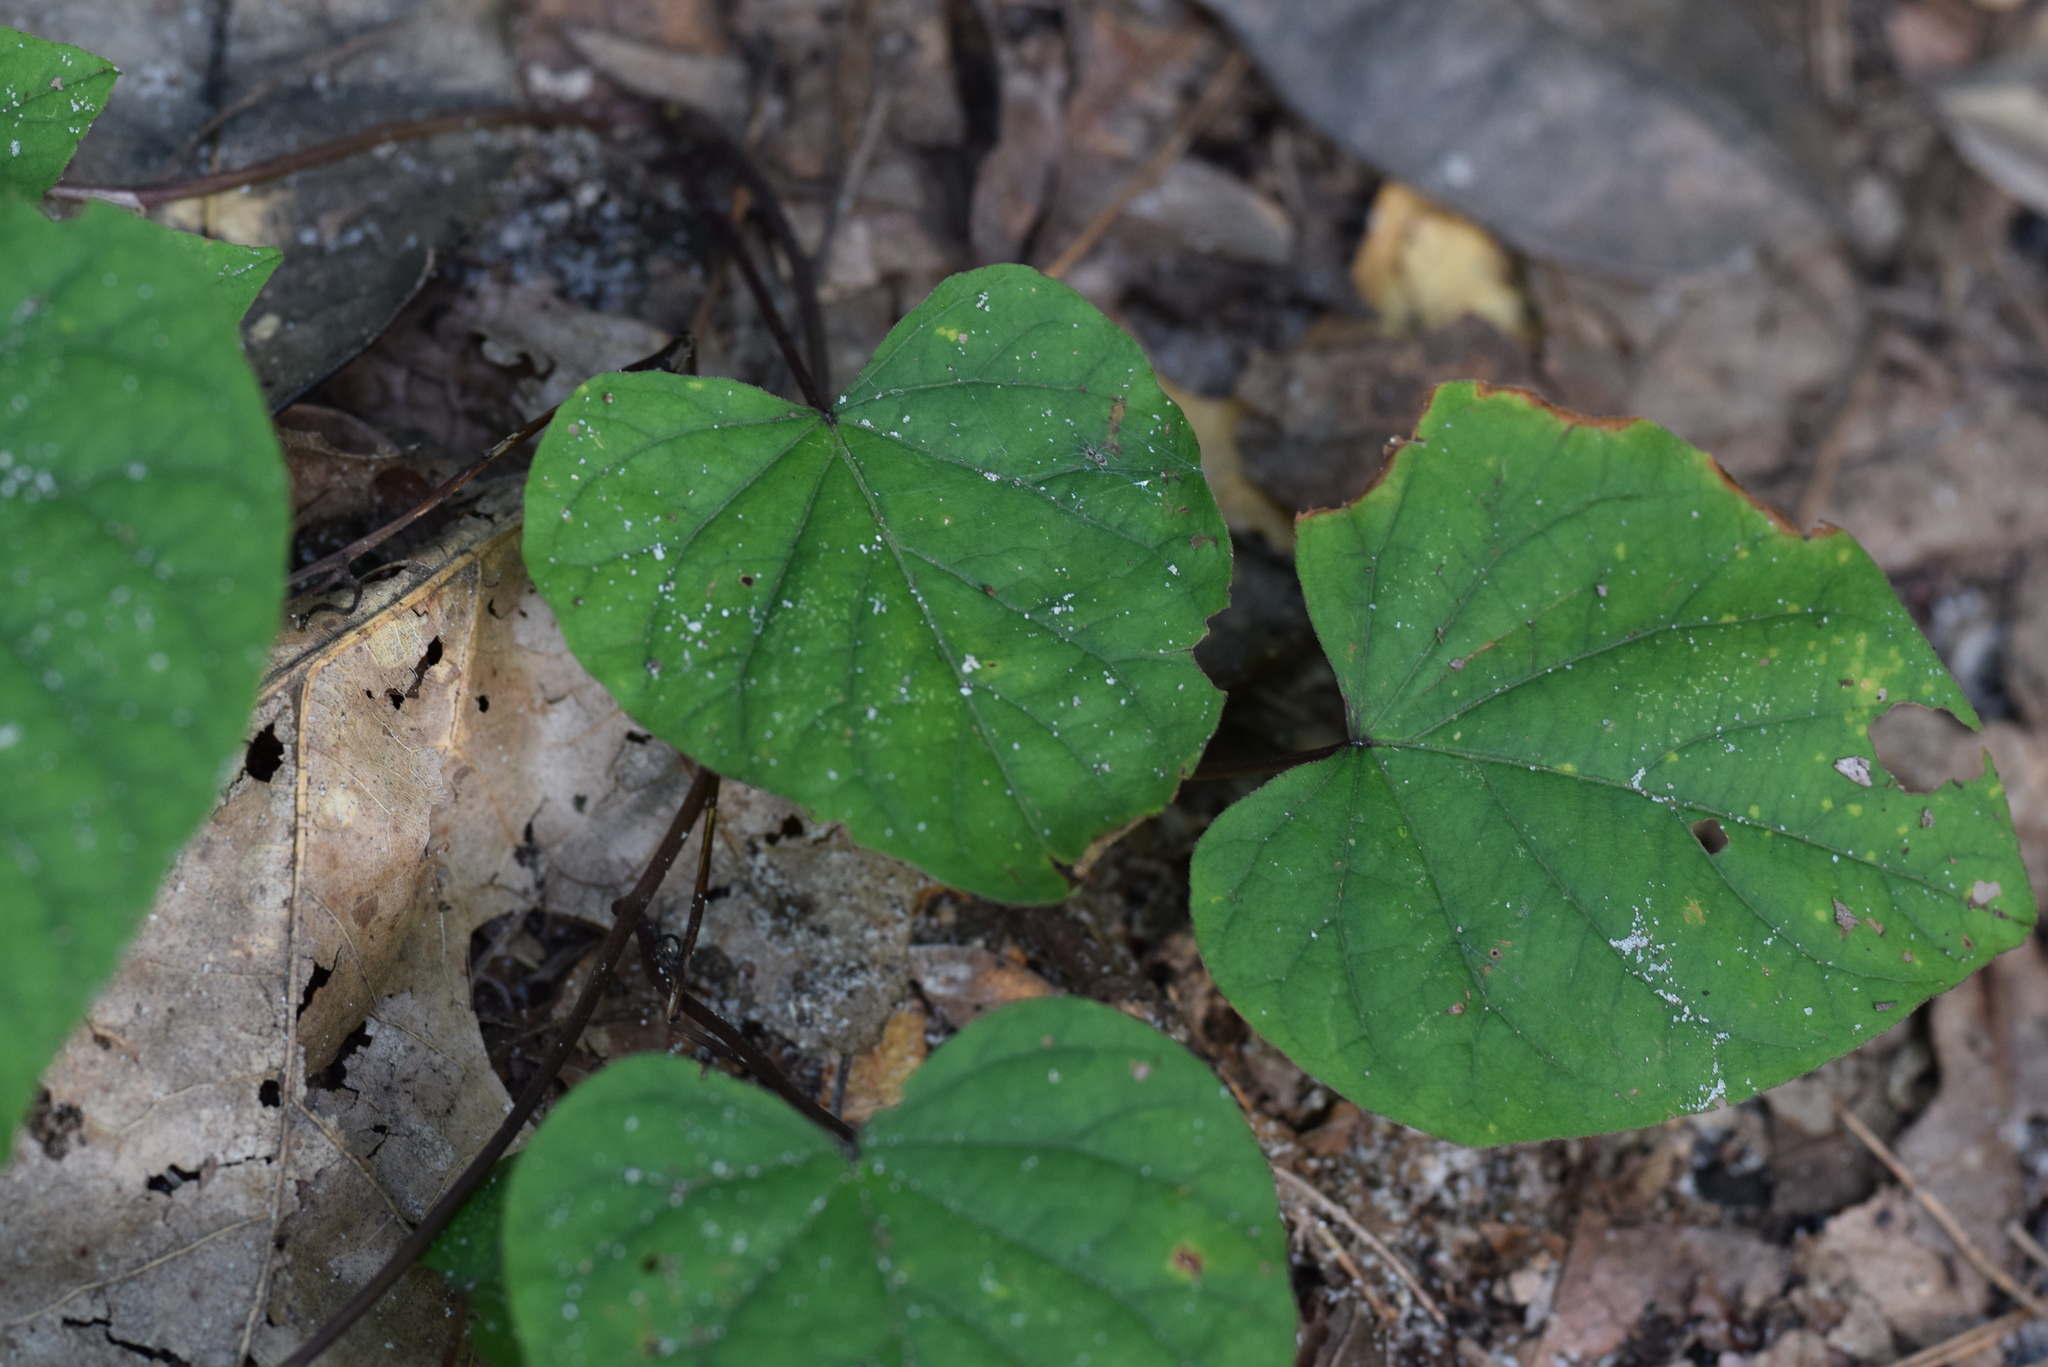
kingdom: Plantae
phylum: Tracheophyta
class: Magnoliopsida
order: Solanales
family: Convolvulaceae
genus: Ipomoea
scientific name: Ipomoea pandurata
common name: Man-of-the-earth
